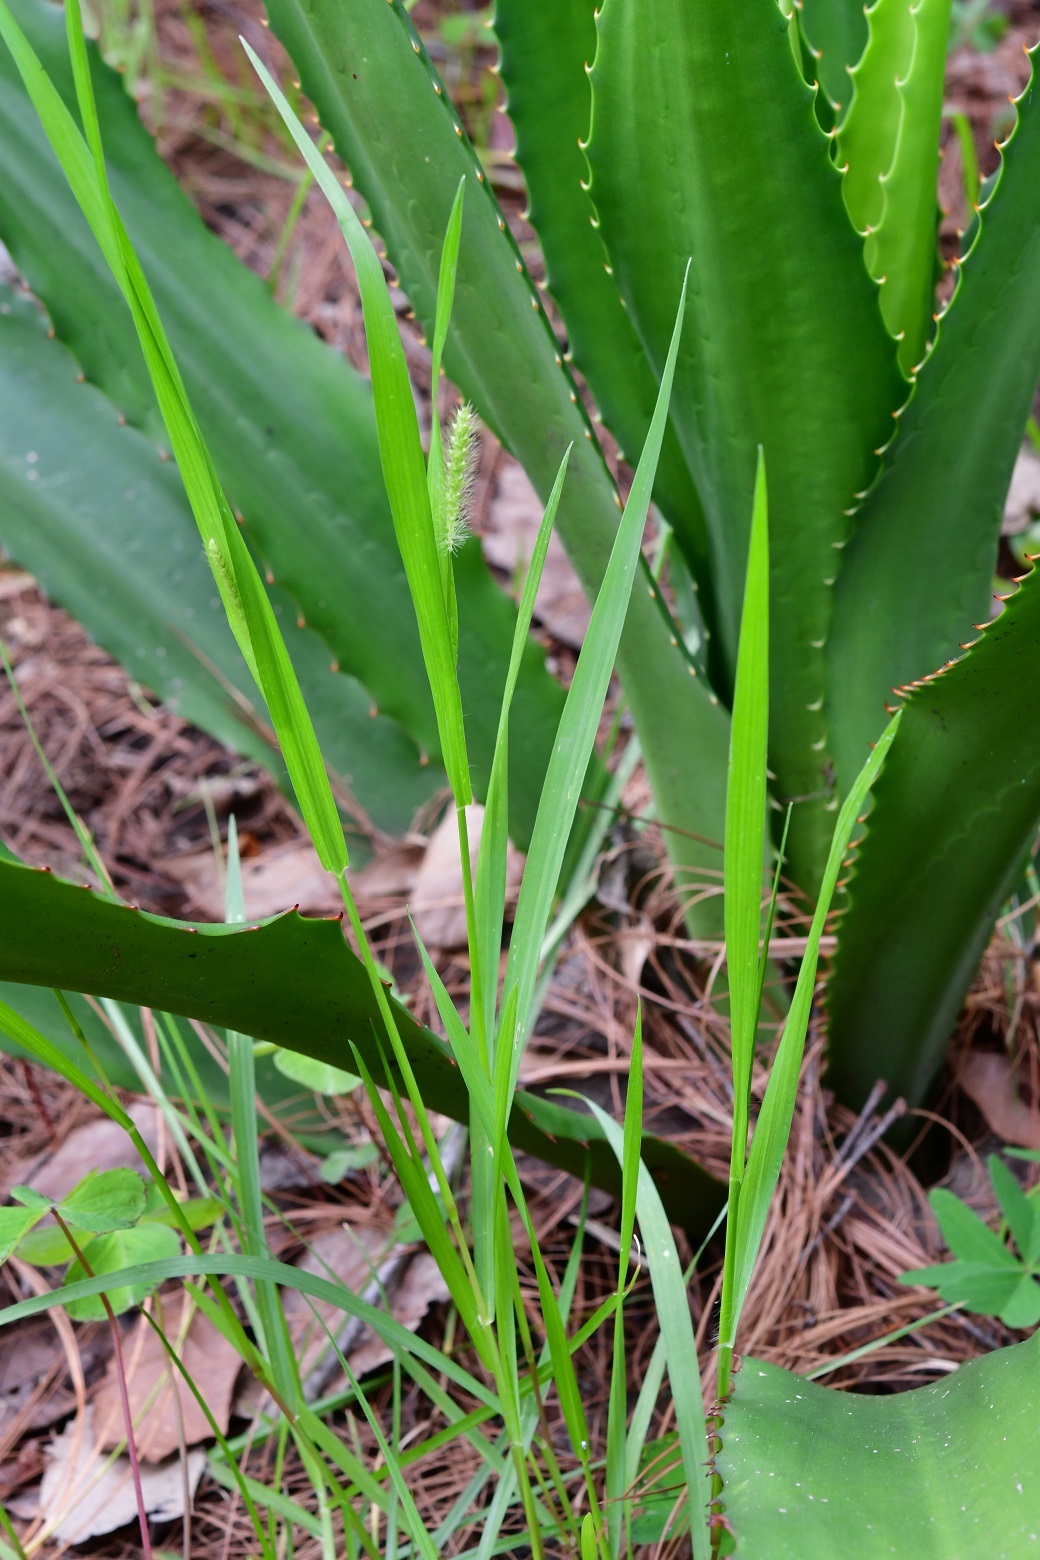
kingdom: Plantae
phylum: Tracheophyta
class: Liliopsida
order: Poales
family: Poaceae
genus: Setaria
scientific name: Setaria parviflora
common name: Knotroot bristle-grass
